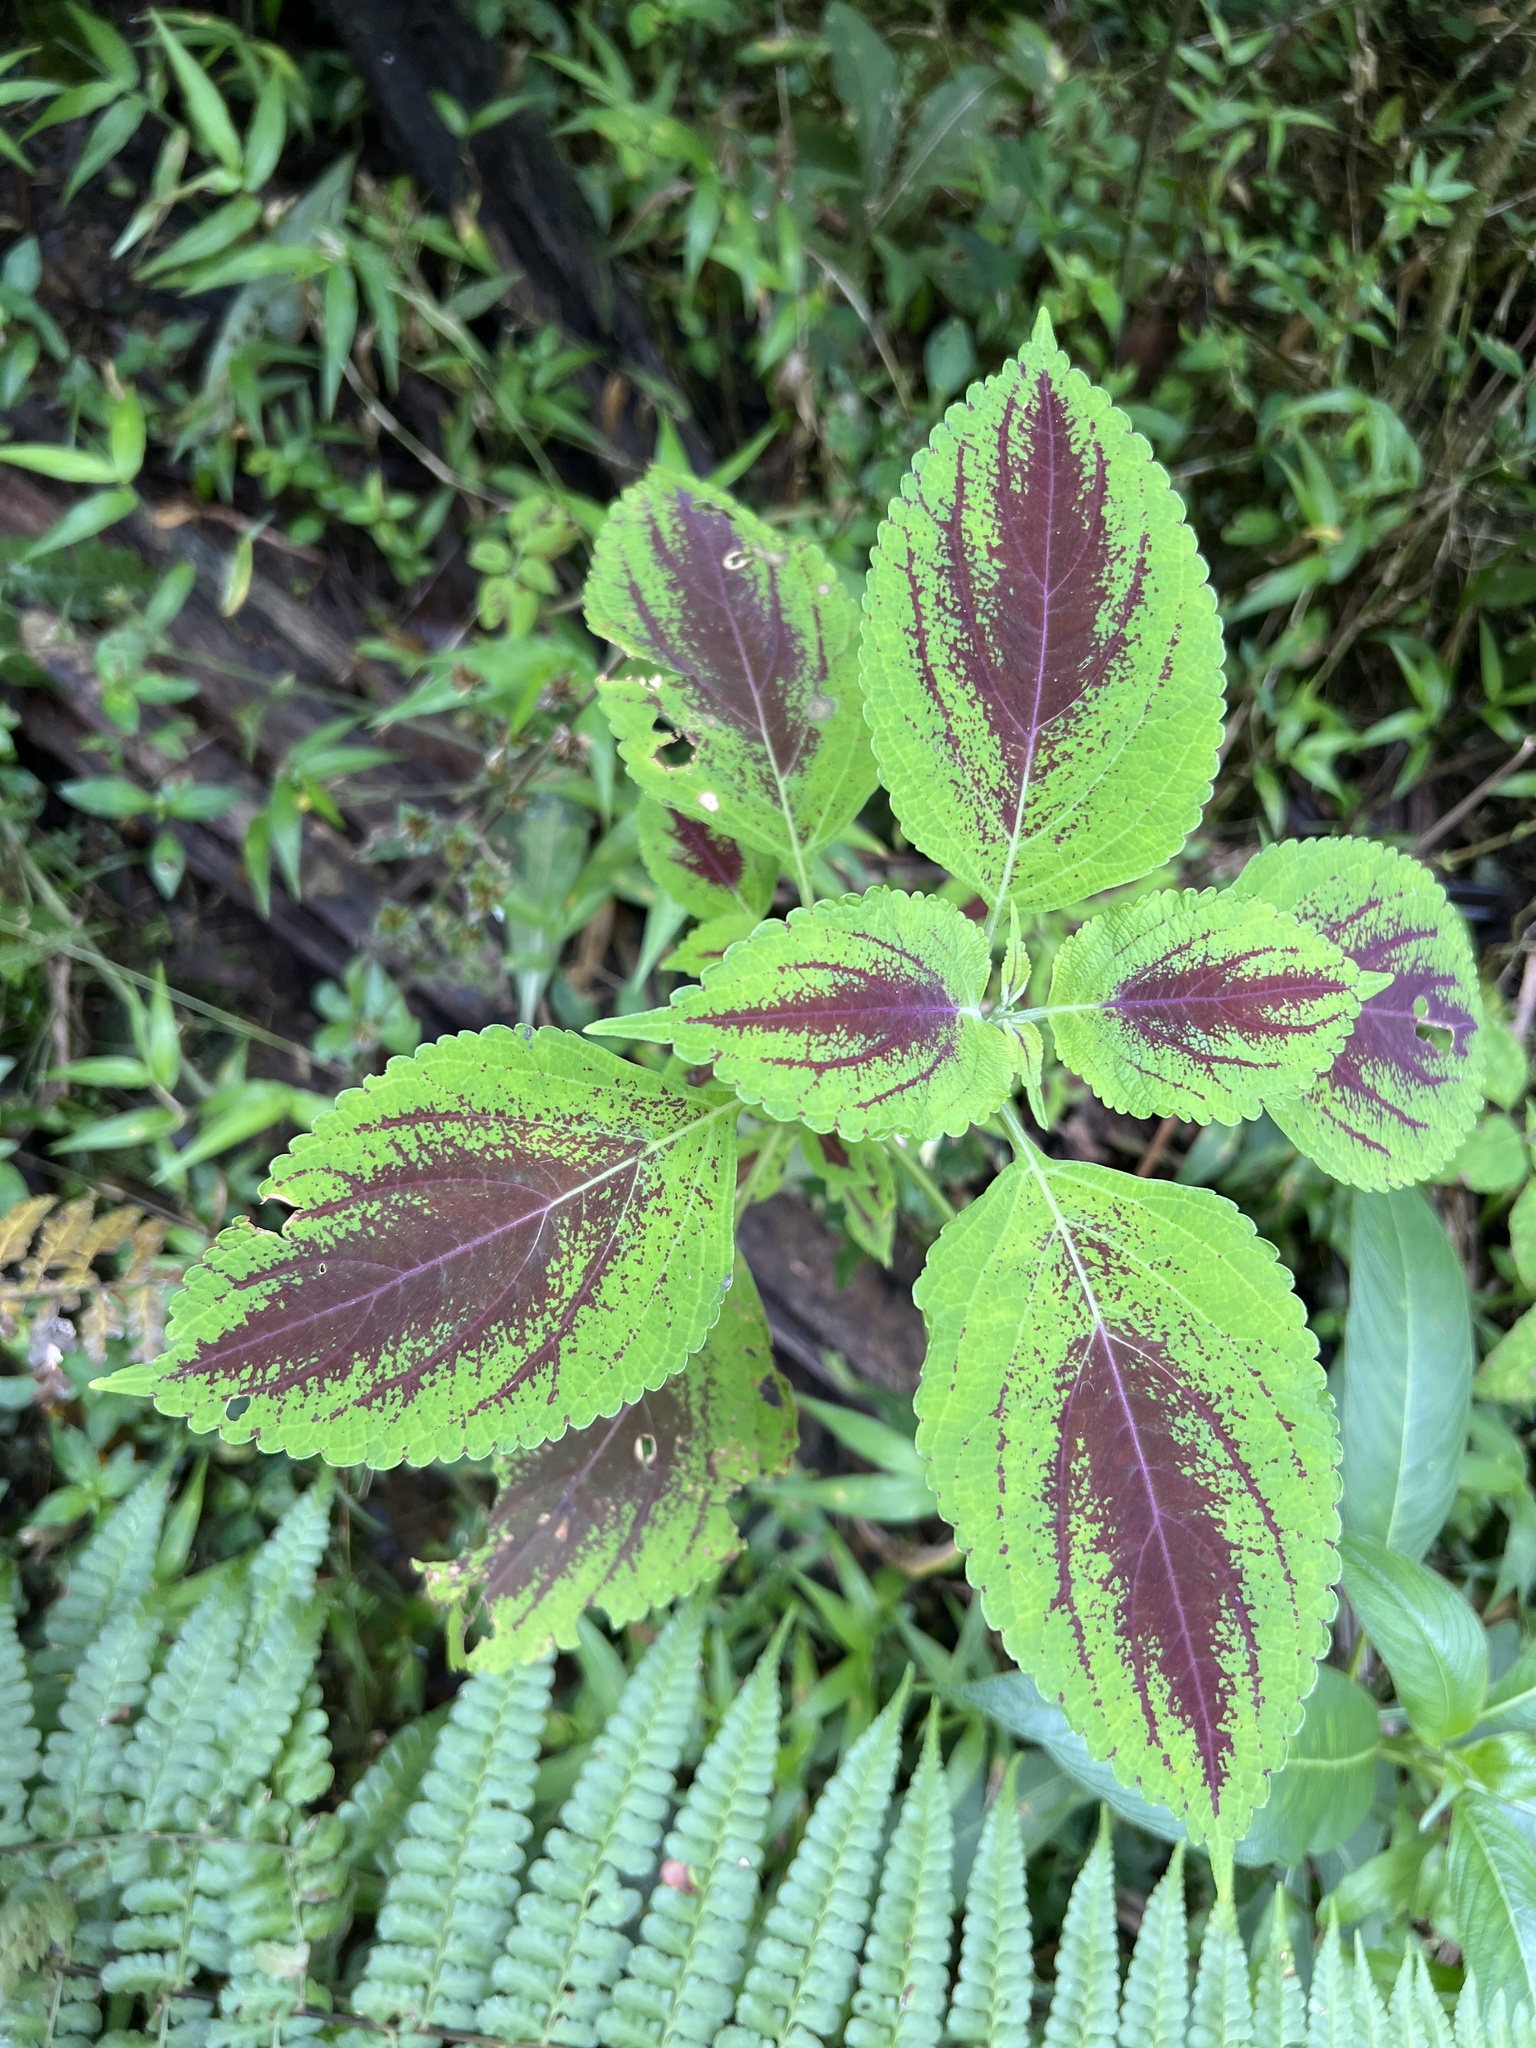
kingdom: Plantae
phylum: Tracheophyta
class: Magnoliopsida
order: Lamiales
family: Lamiaceae
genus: Coleus
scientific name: Coleus scutellarioides
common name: Coleus
